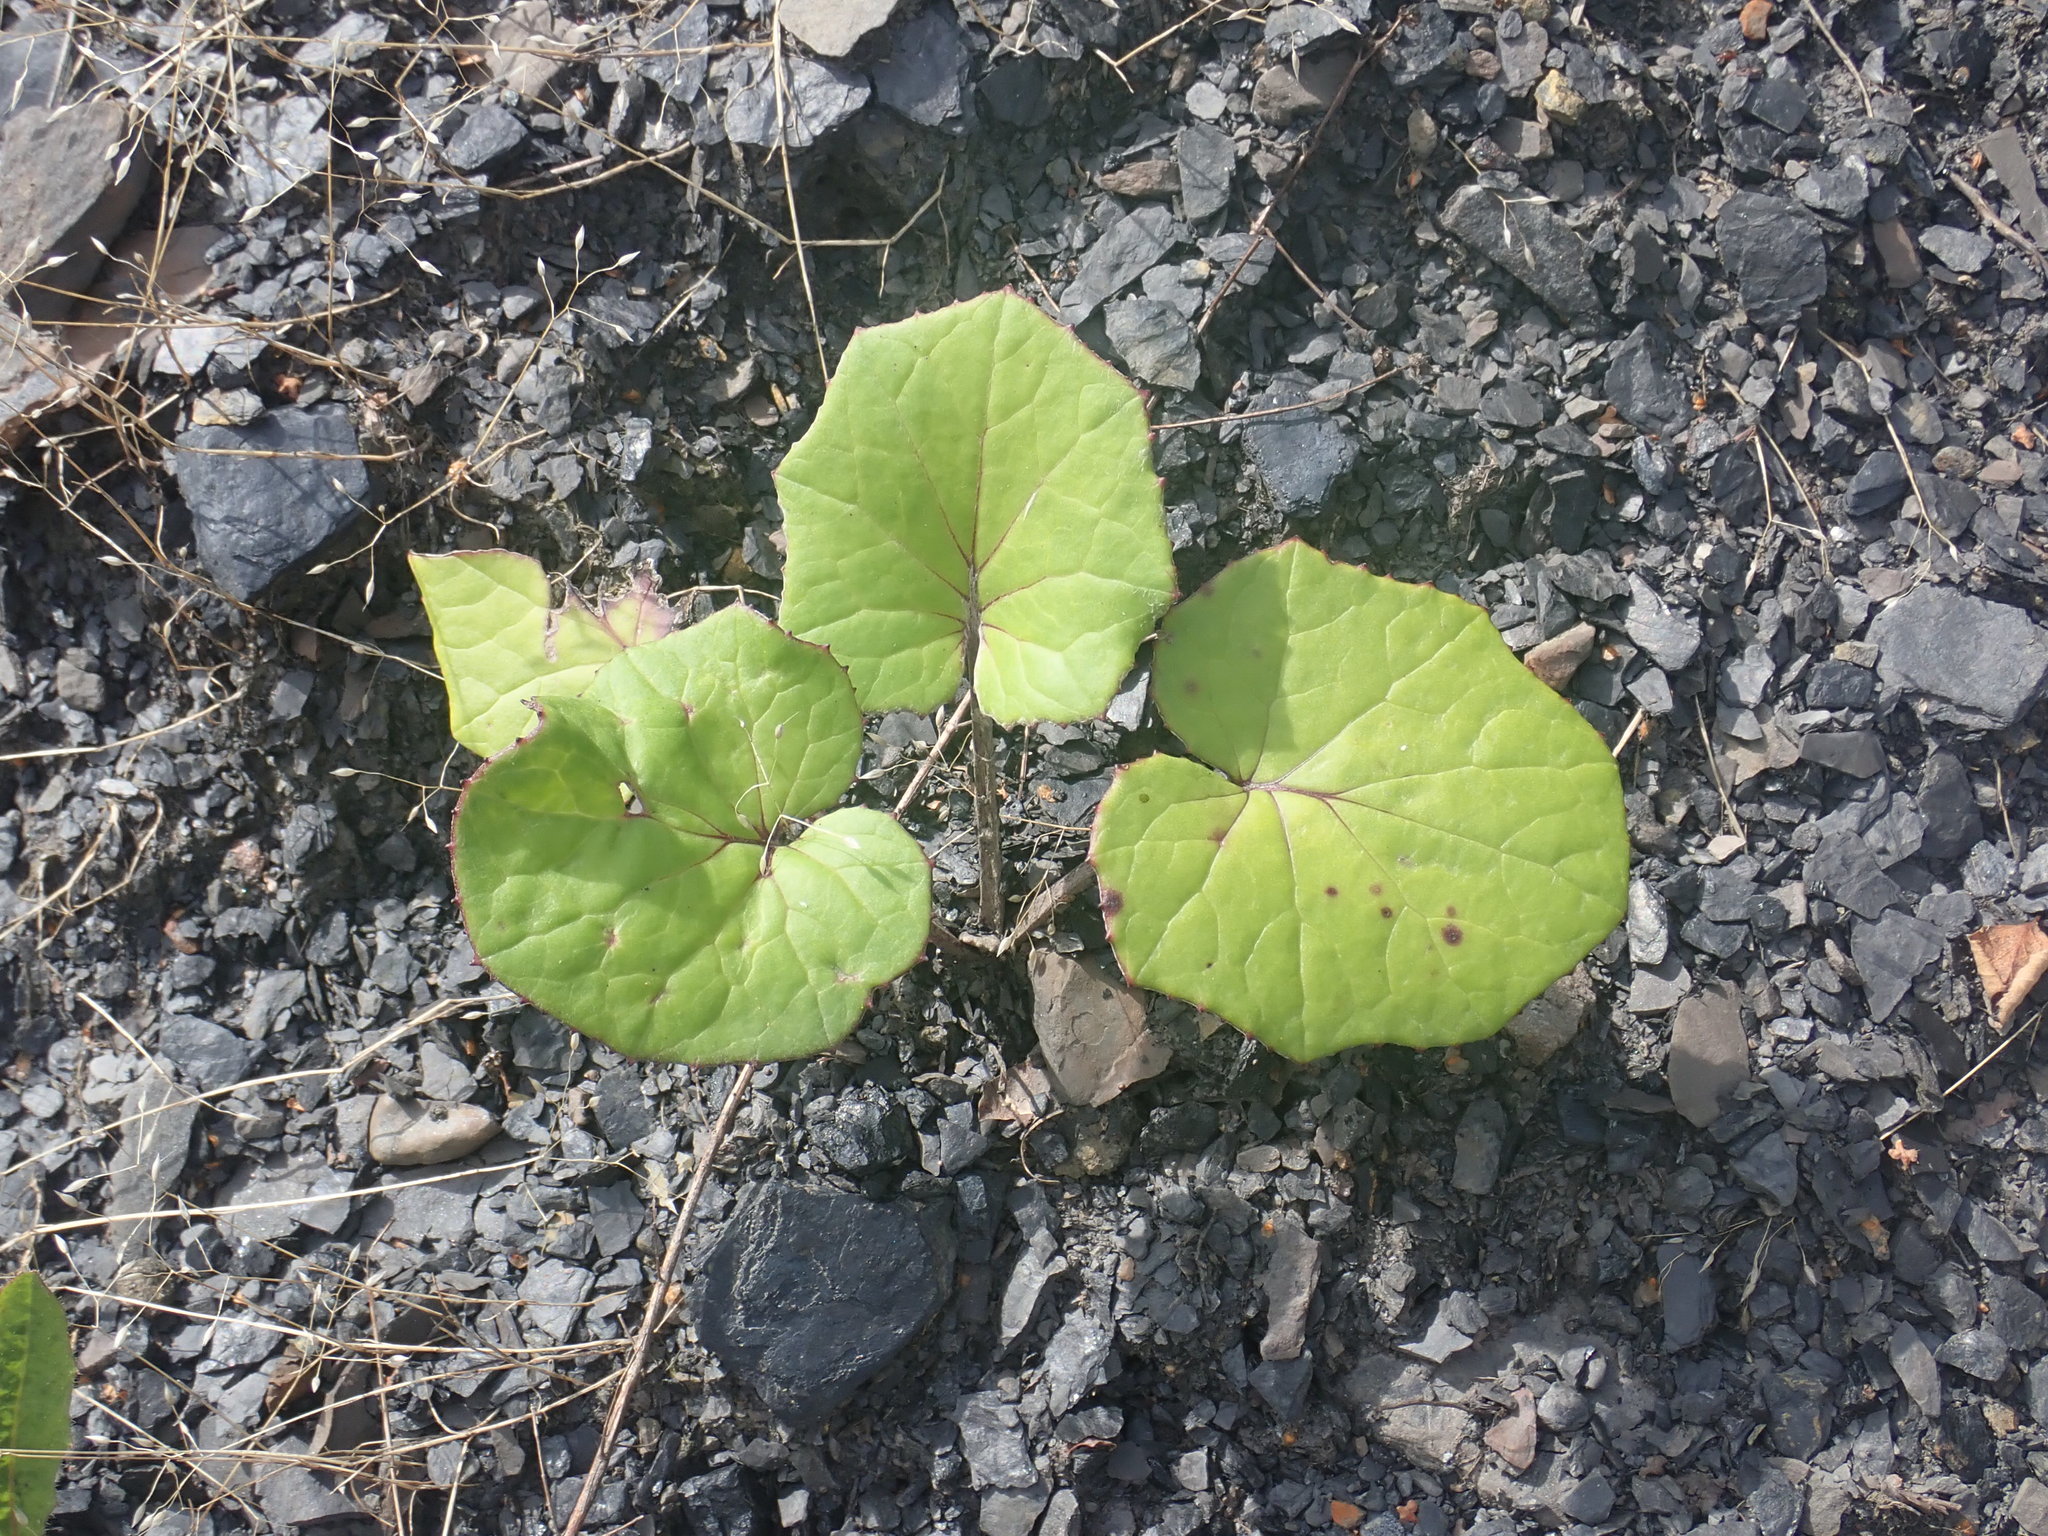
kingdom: Plantae
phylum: Tracheophyta
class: Magnoliopsida
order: Asterales
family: Asteraceae
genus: Tussilago
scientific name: Tussilago farfara
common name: Coltsfoot
